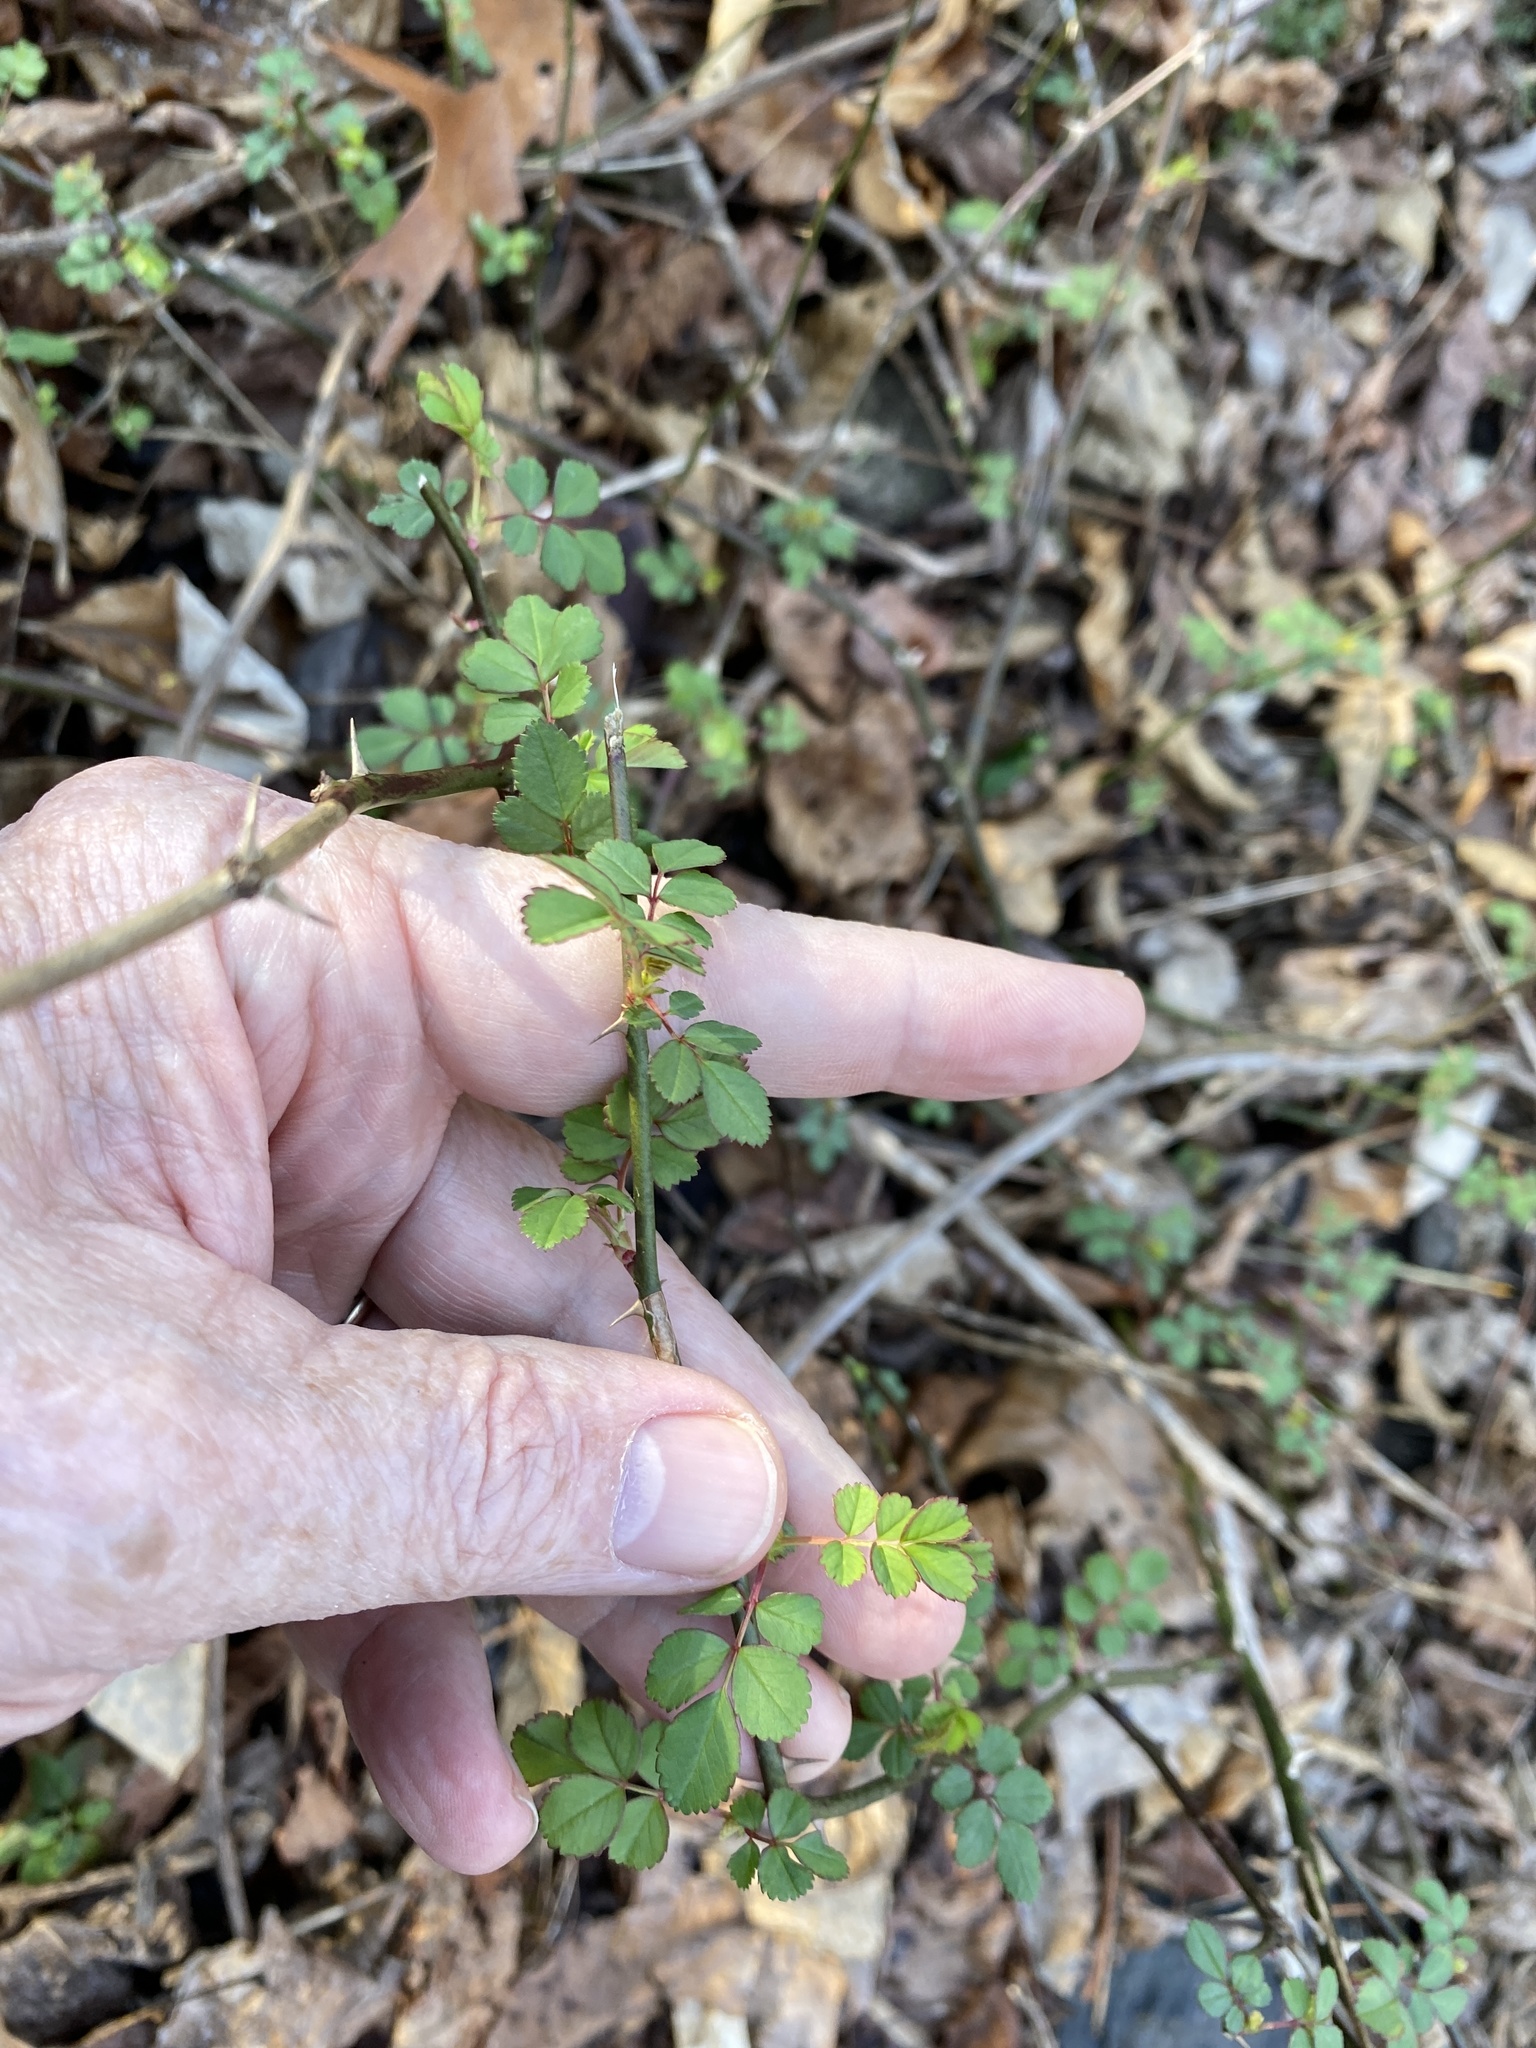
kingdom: Plantae
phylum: Tracheophyta
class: Magnoliopsida
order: Rosales
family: Rosaceae
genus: Rosa
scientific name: Rosa multiflora
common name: Multiflora rose
